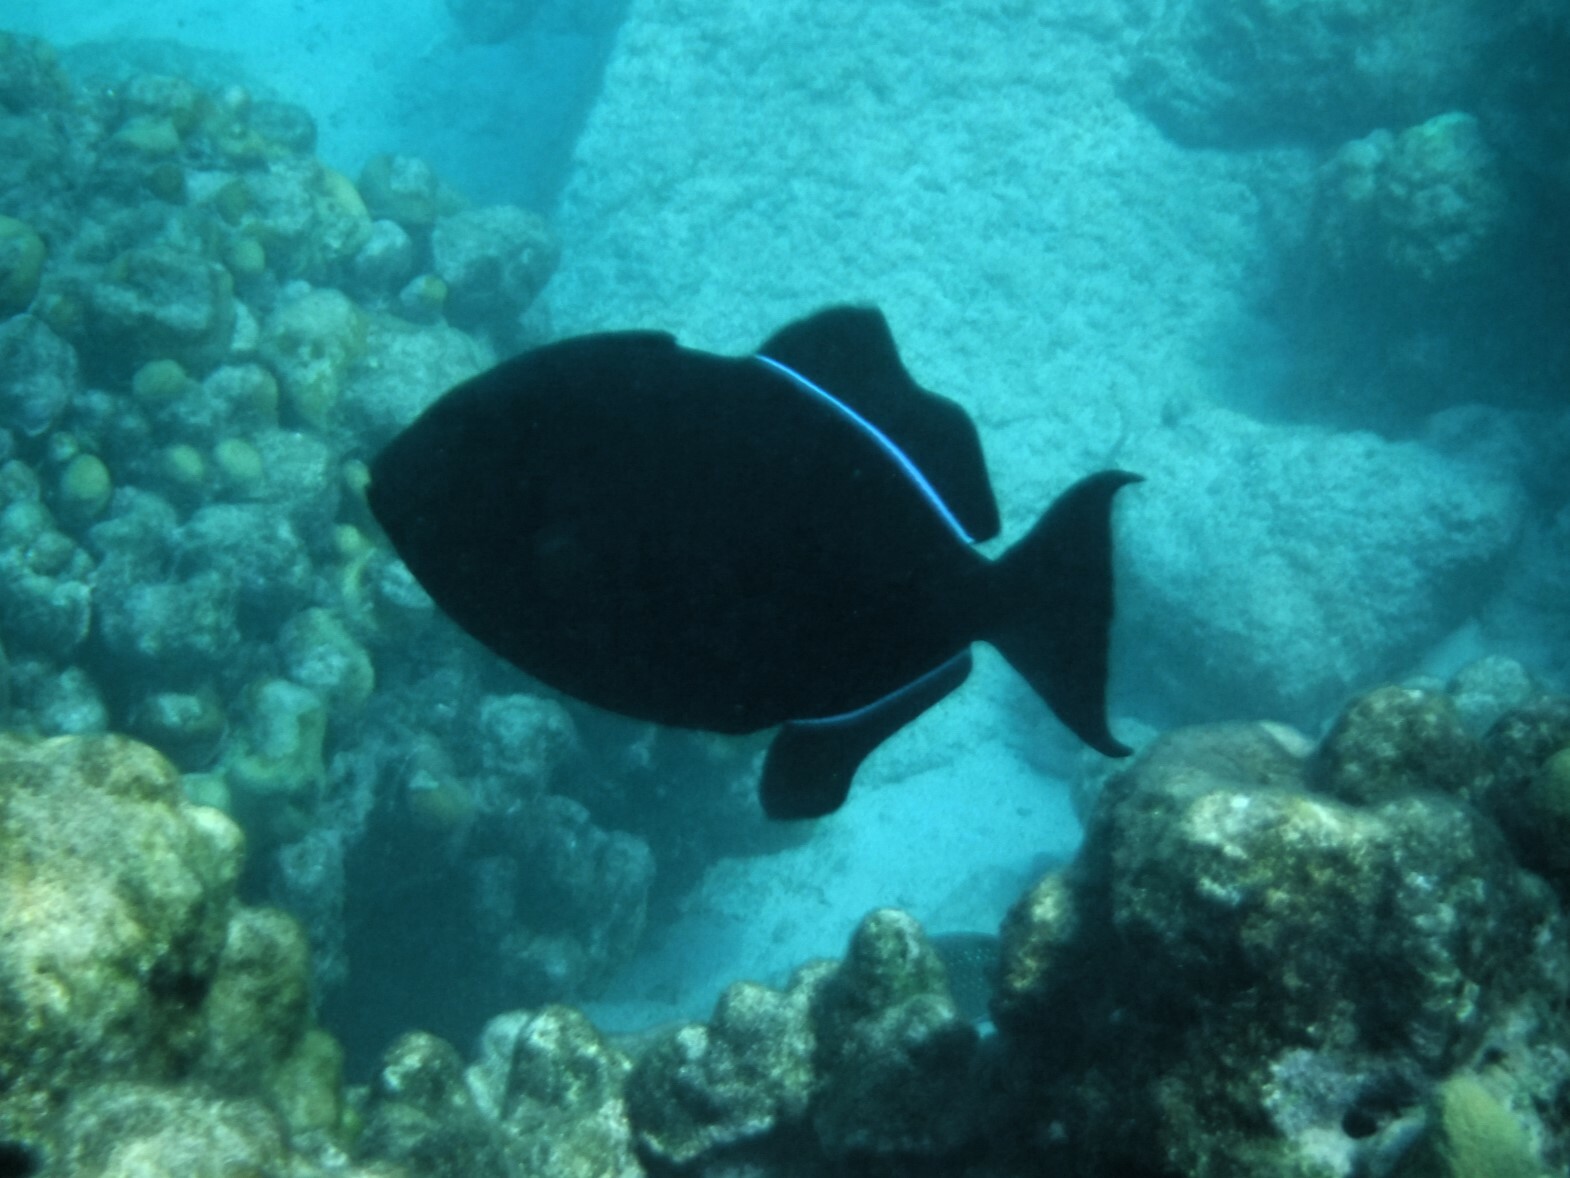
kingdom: Animalia
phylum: Chordata
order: Tetraodontiformes
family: Balistidae
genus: Melichthys
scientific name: Melichthys niger
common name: Black durgon
